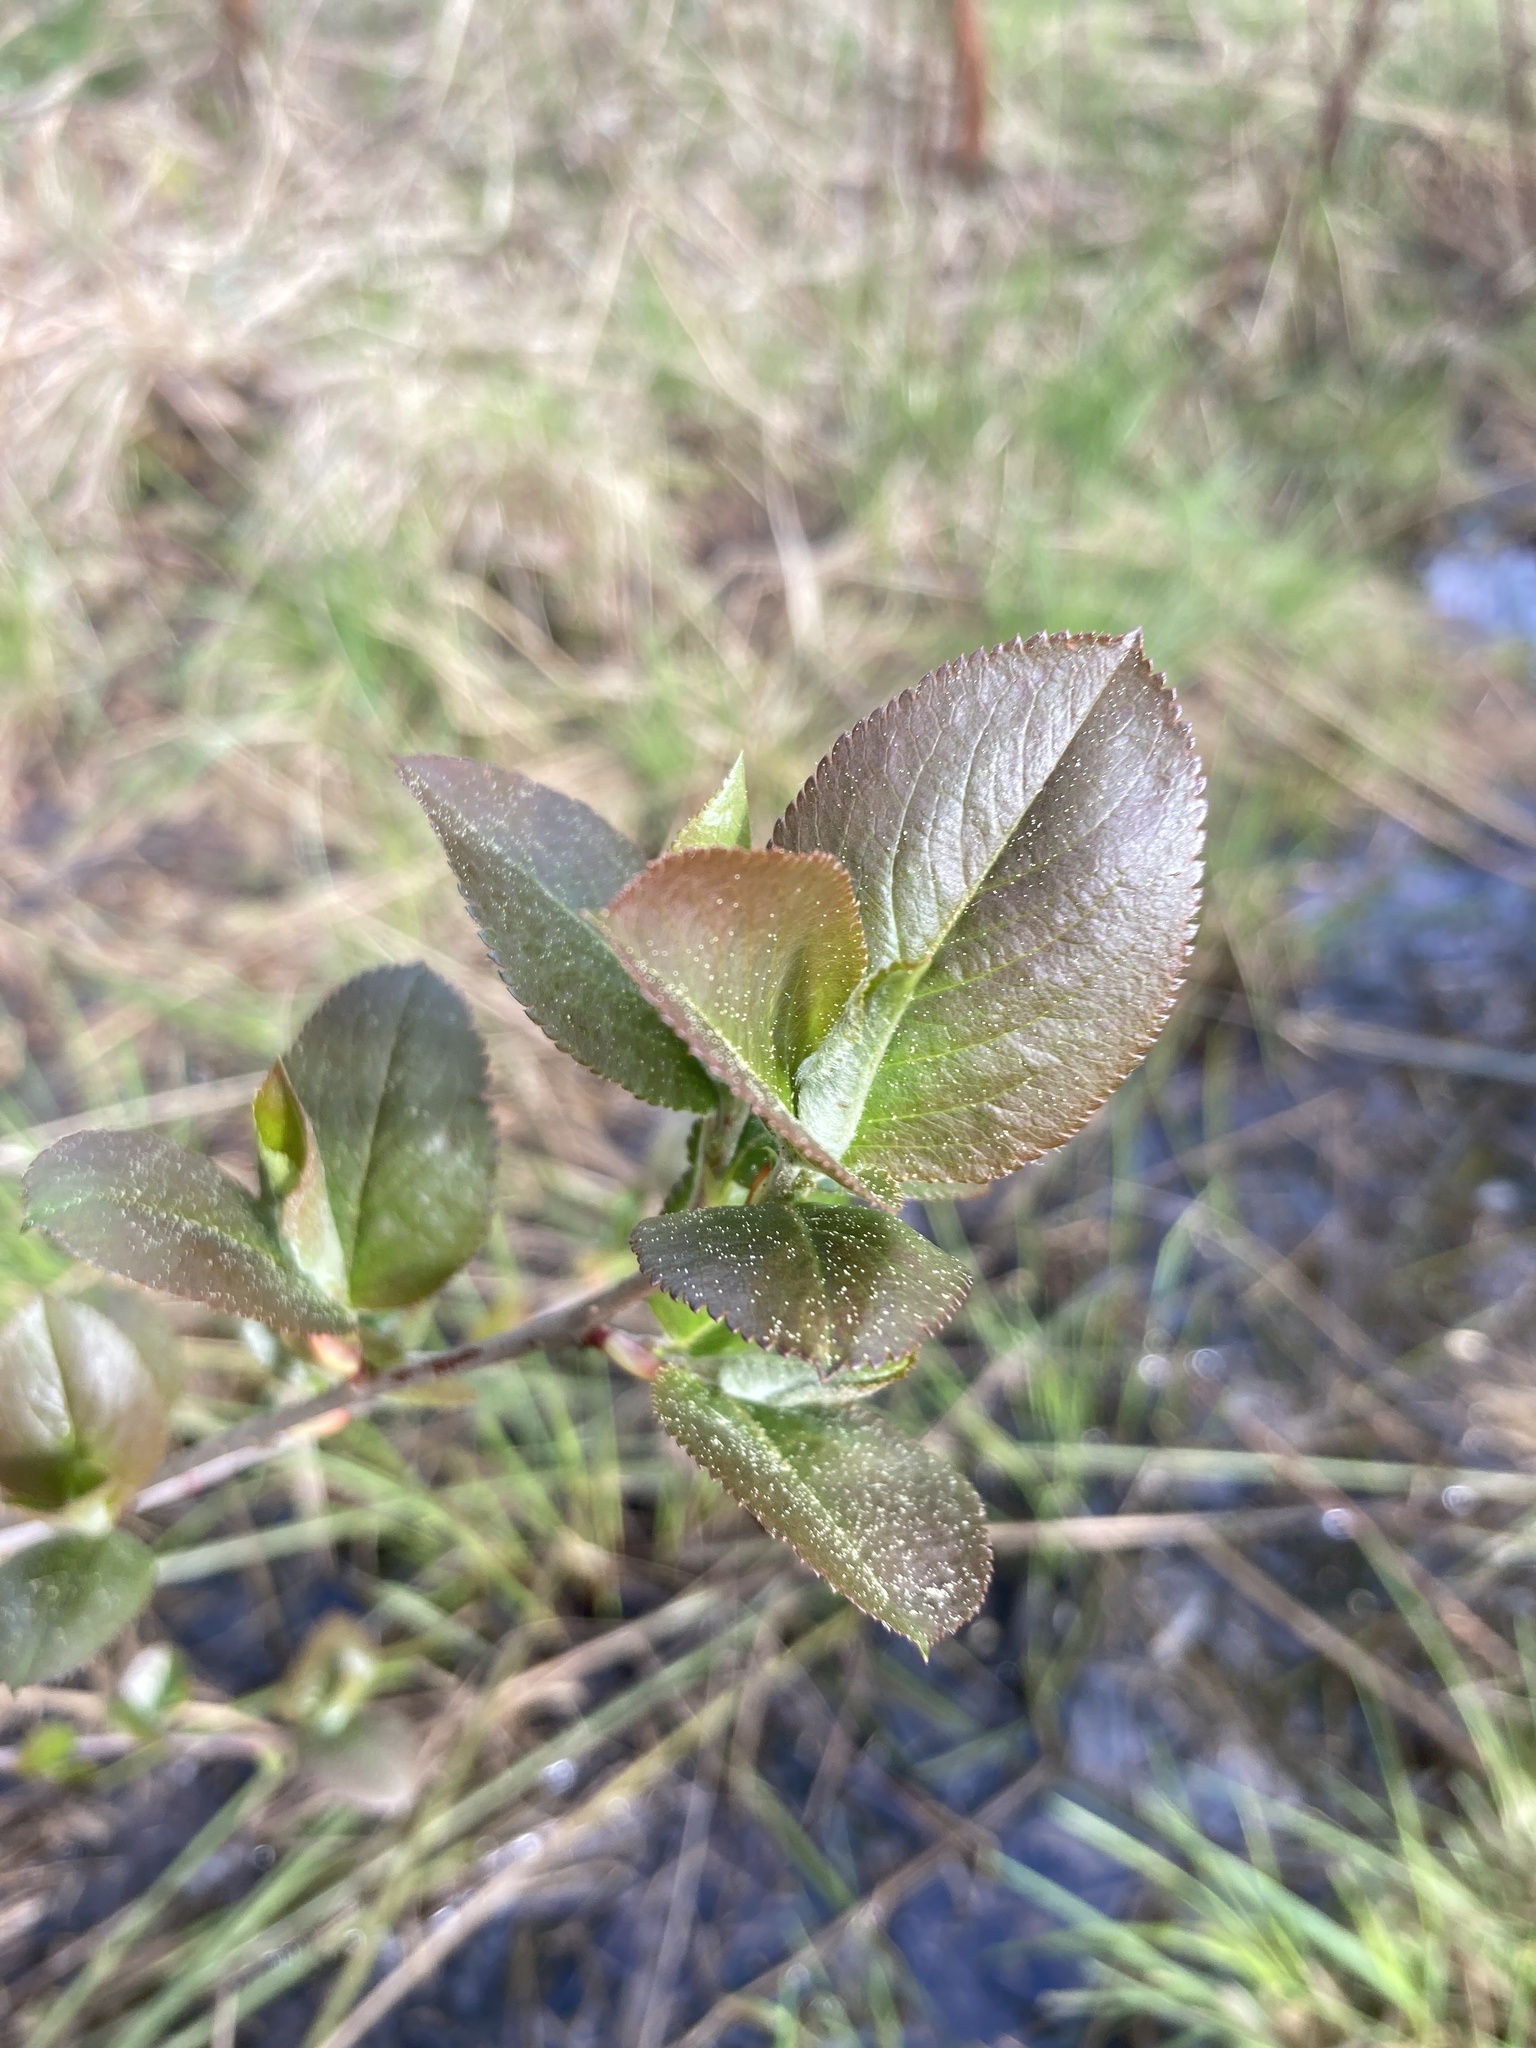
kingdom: Plantae
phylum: Tracheophyta
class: Magnoliopsida
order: Rosales
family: Rosaceae
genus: Sorbaronia
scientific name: Sorbaronia arsenii
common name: Arsène's mountain-ash
